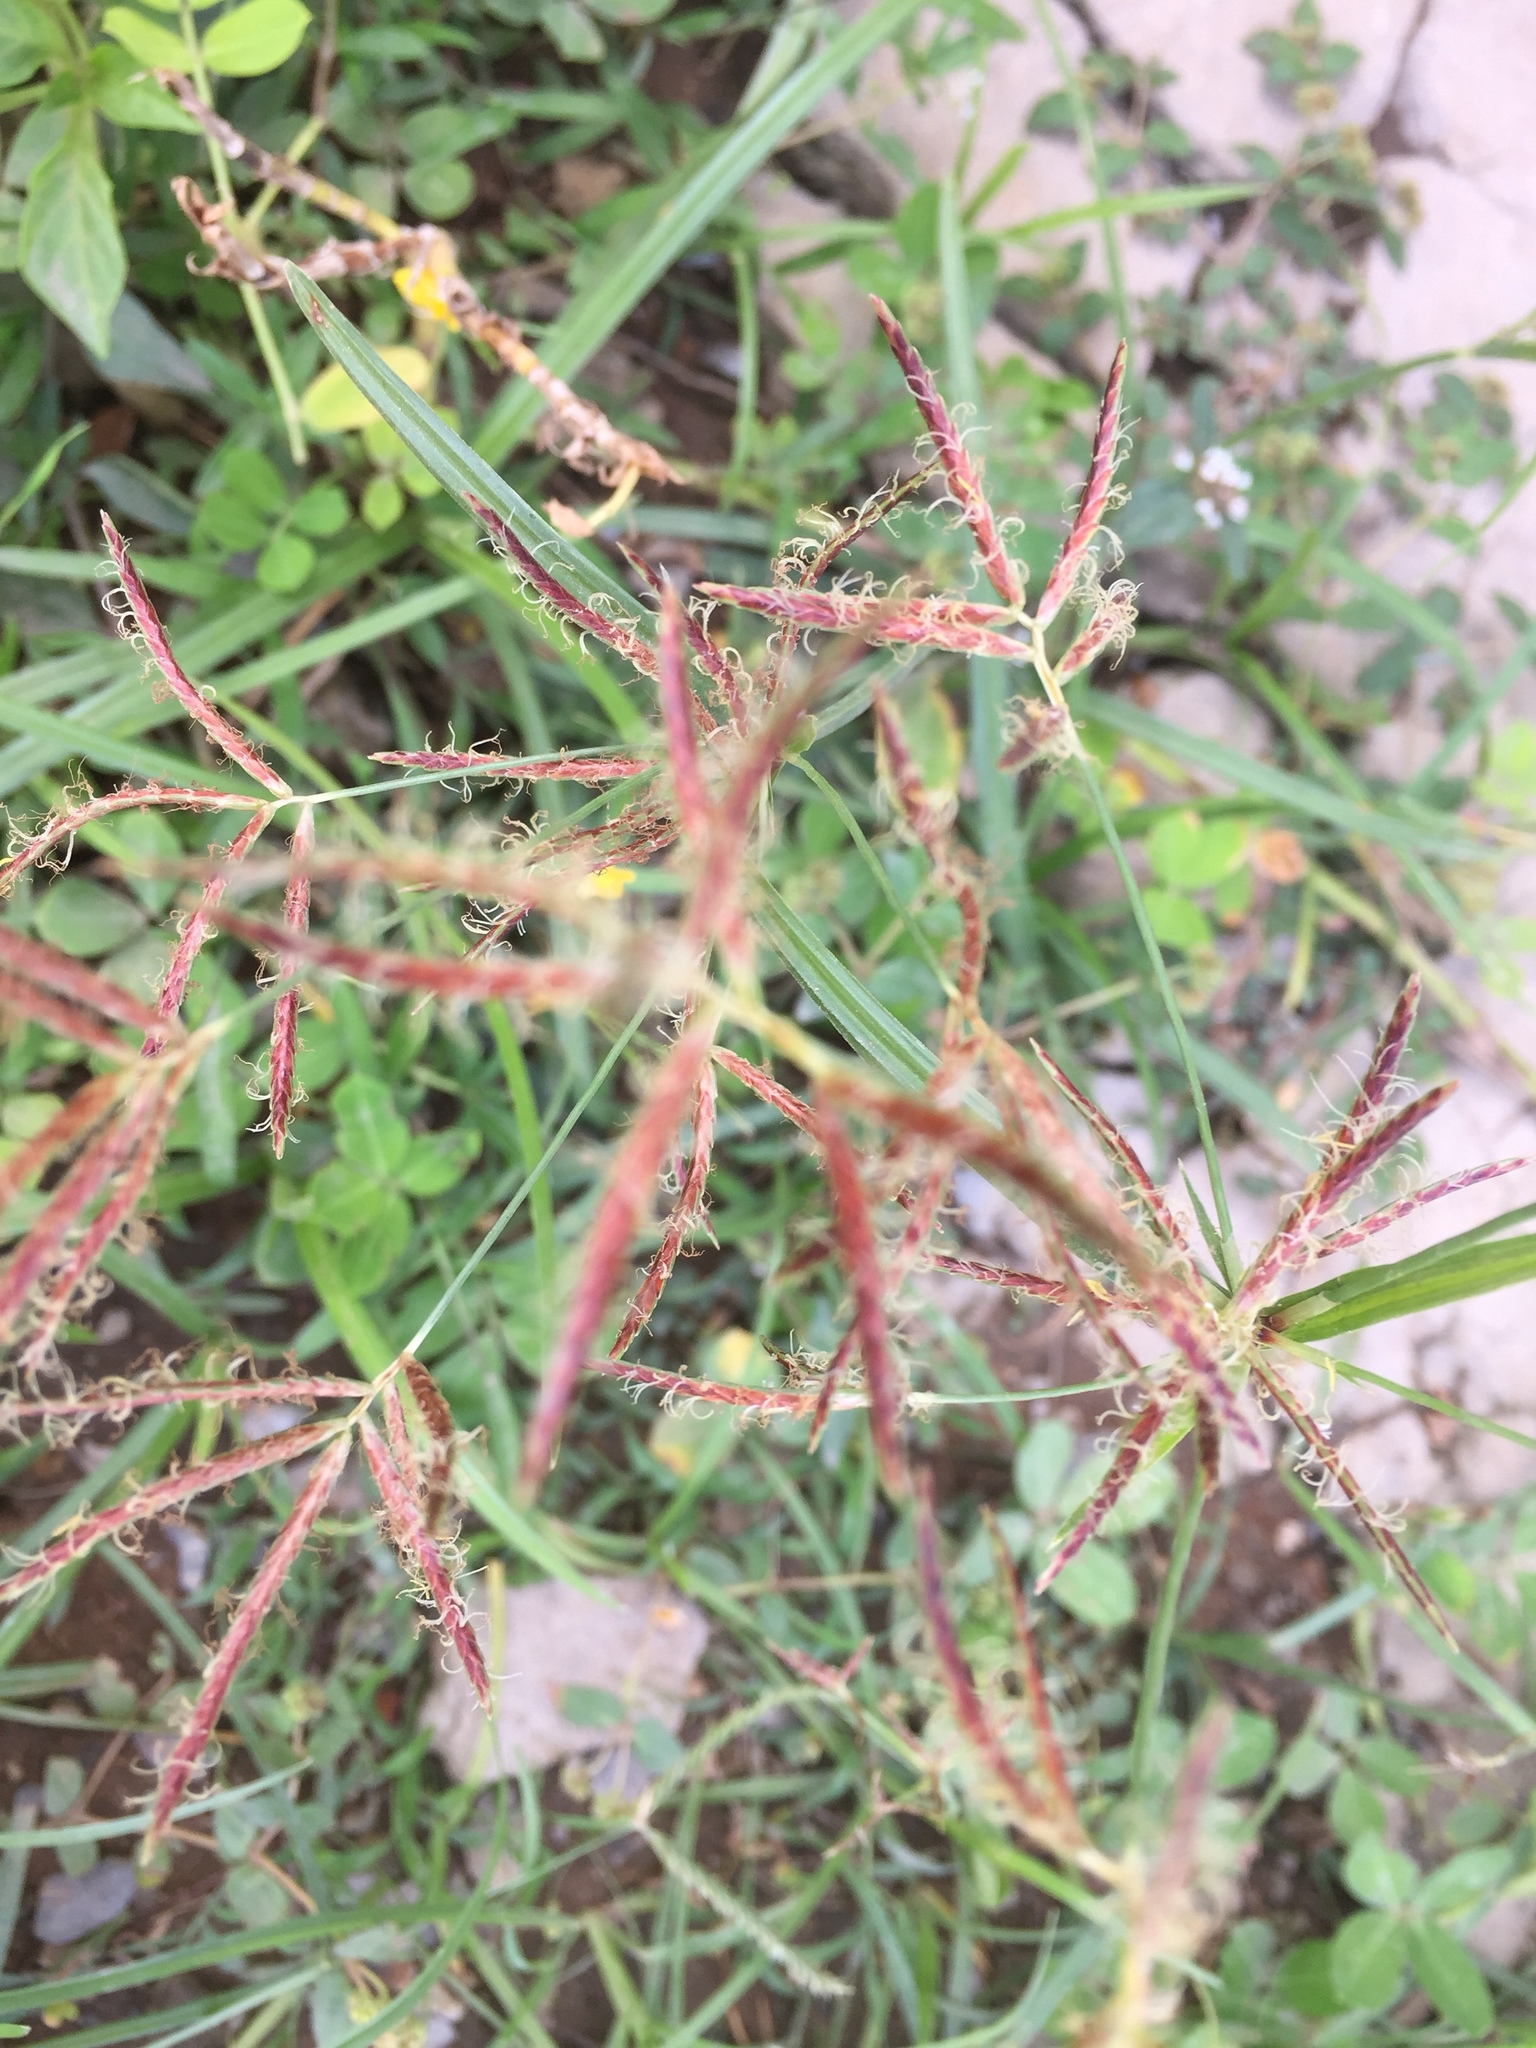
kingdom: Plantae
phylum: Tracheophyta
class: Liliopsida
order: Poales
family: Cyperaceae
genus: Cyperus
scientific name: Cyperus rotundus
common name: Nutgrass
